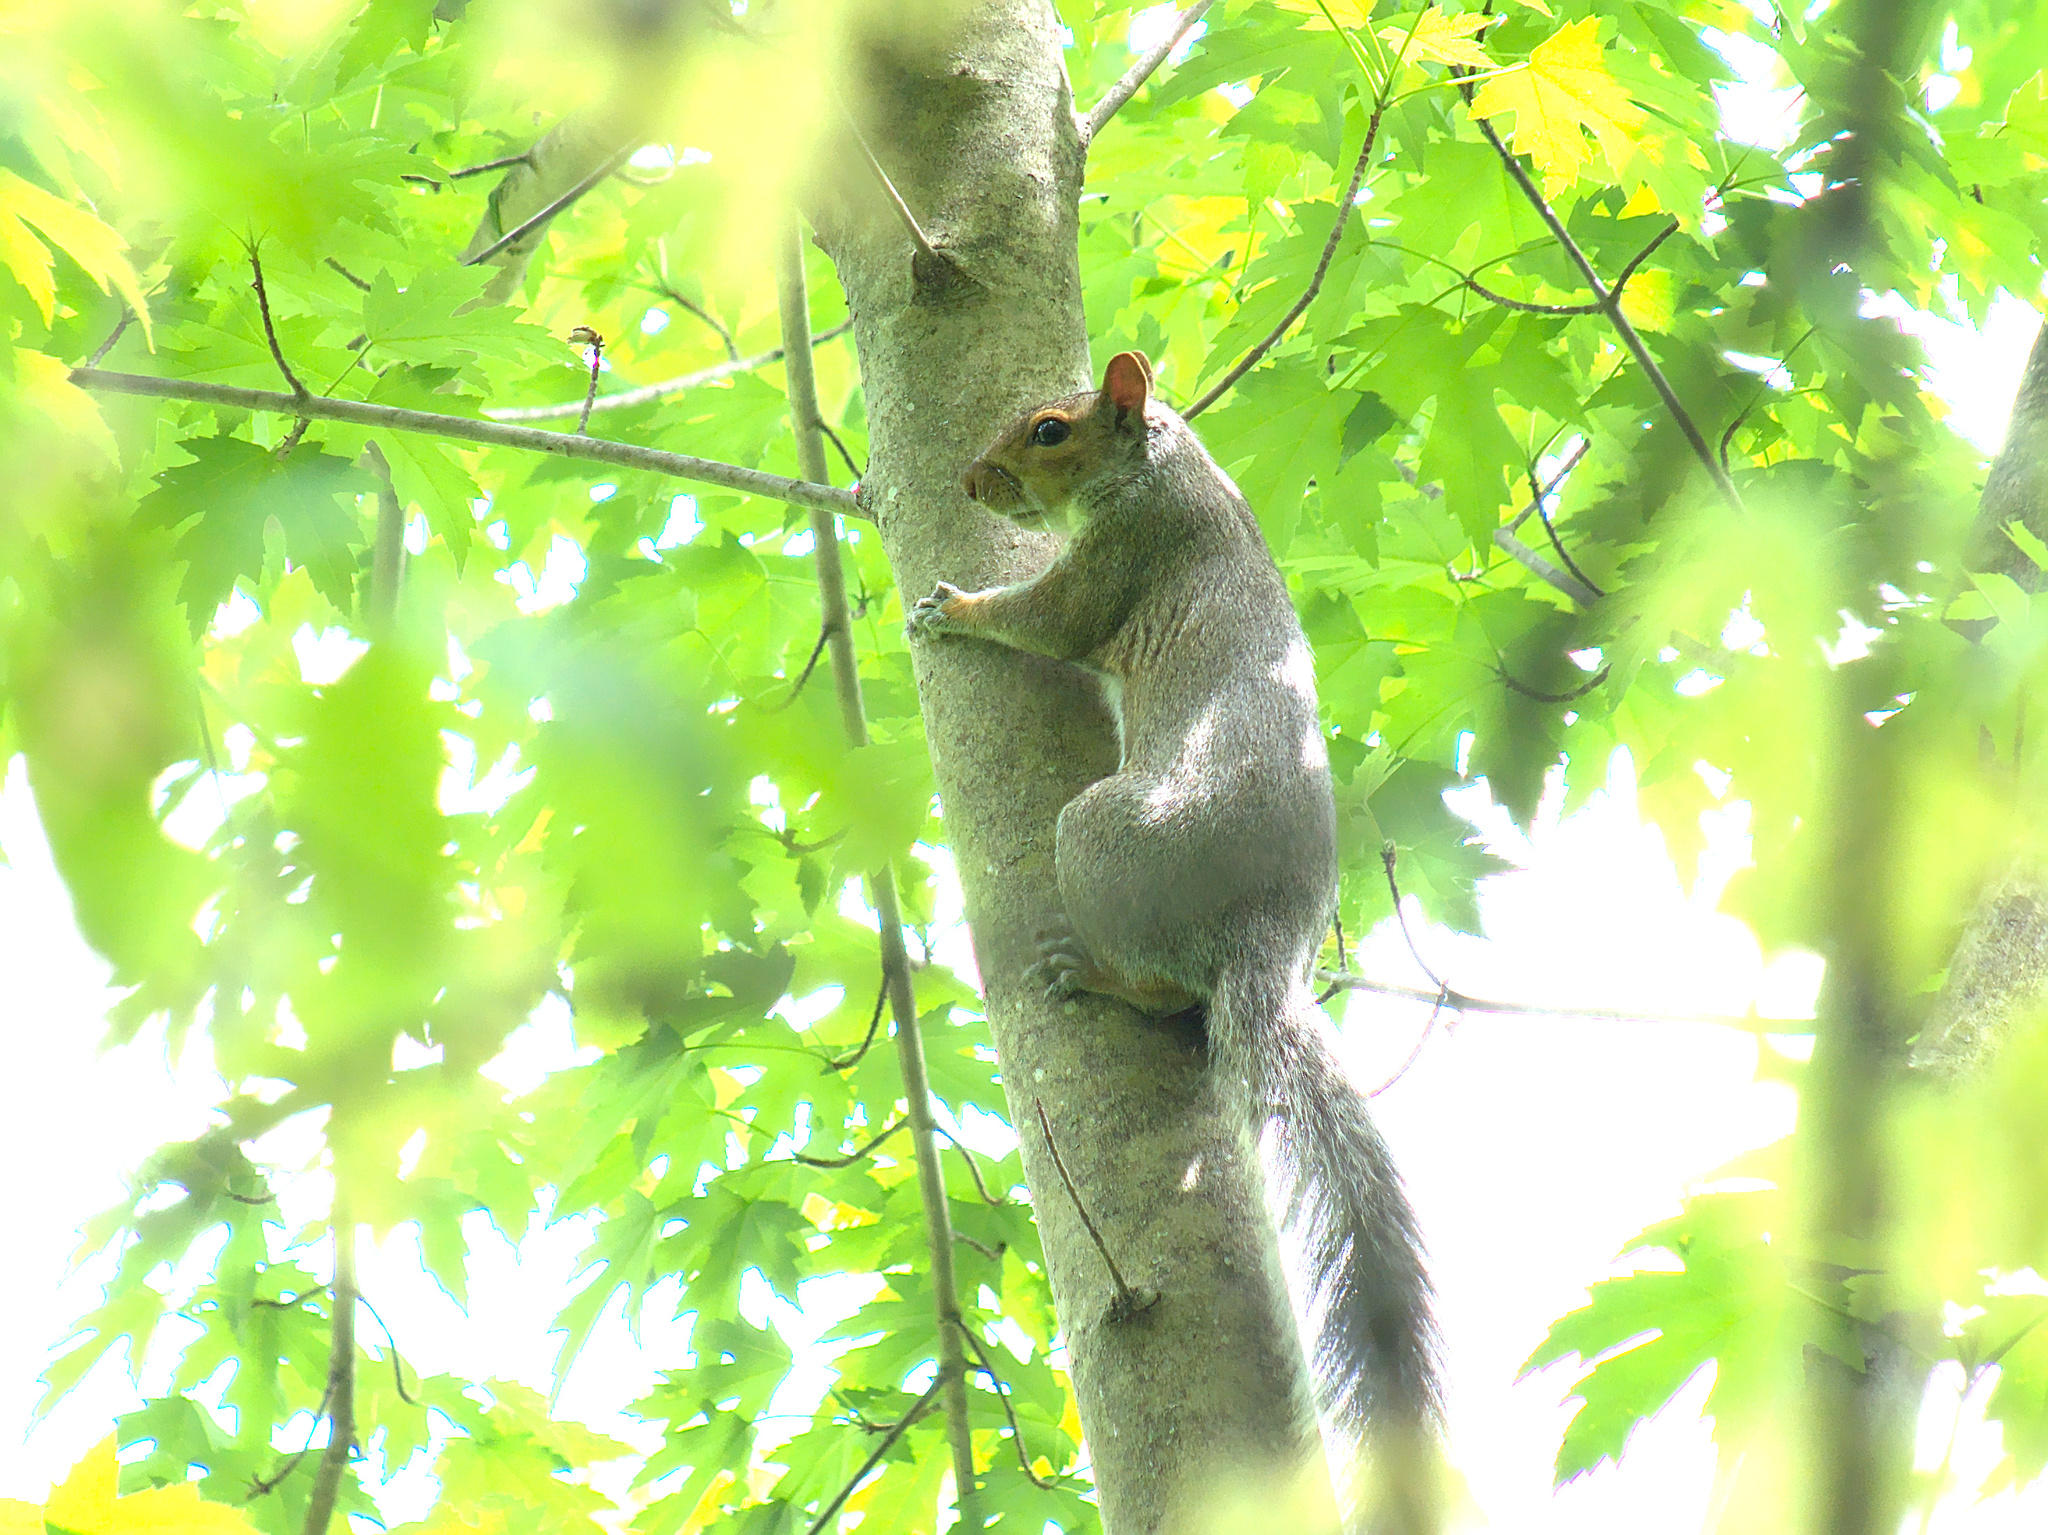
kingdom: Animalia
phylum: Chordata
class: Mammalia
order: Rodentia
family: Sciuridae
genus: Sciurus
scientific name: Sciurus carolinensis
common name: Eastern gray squirrel
